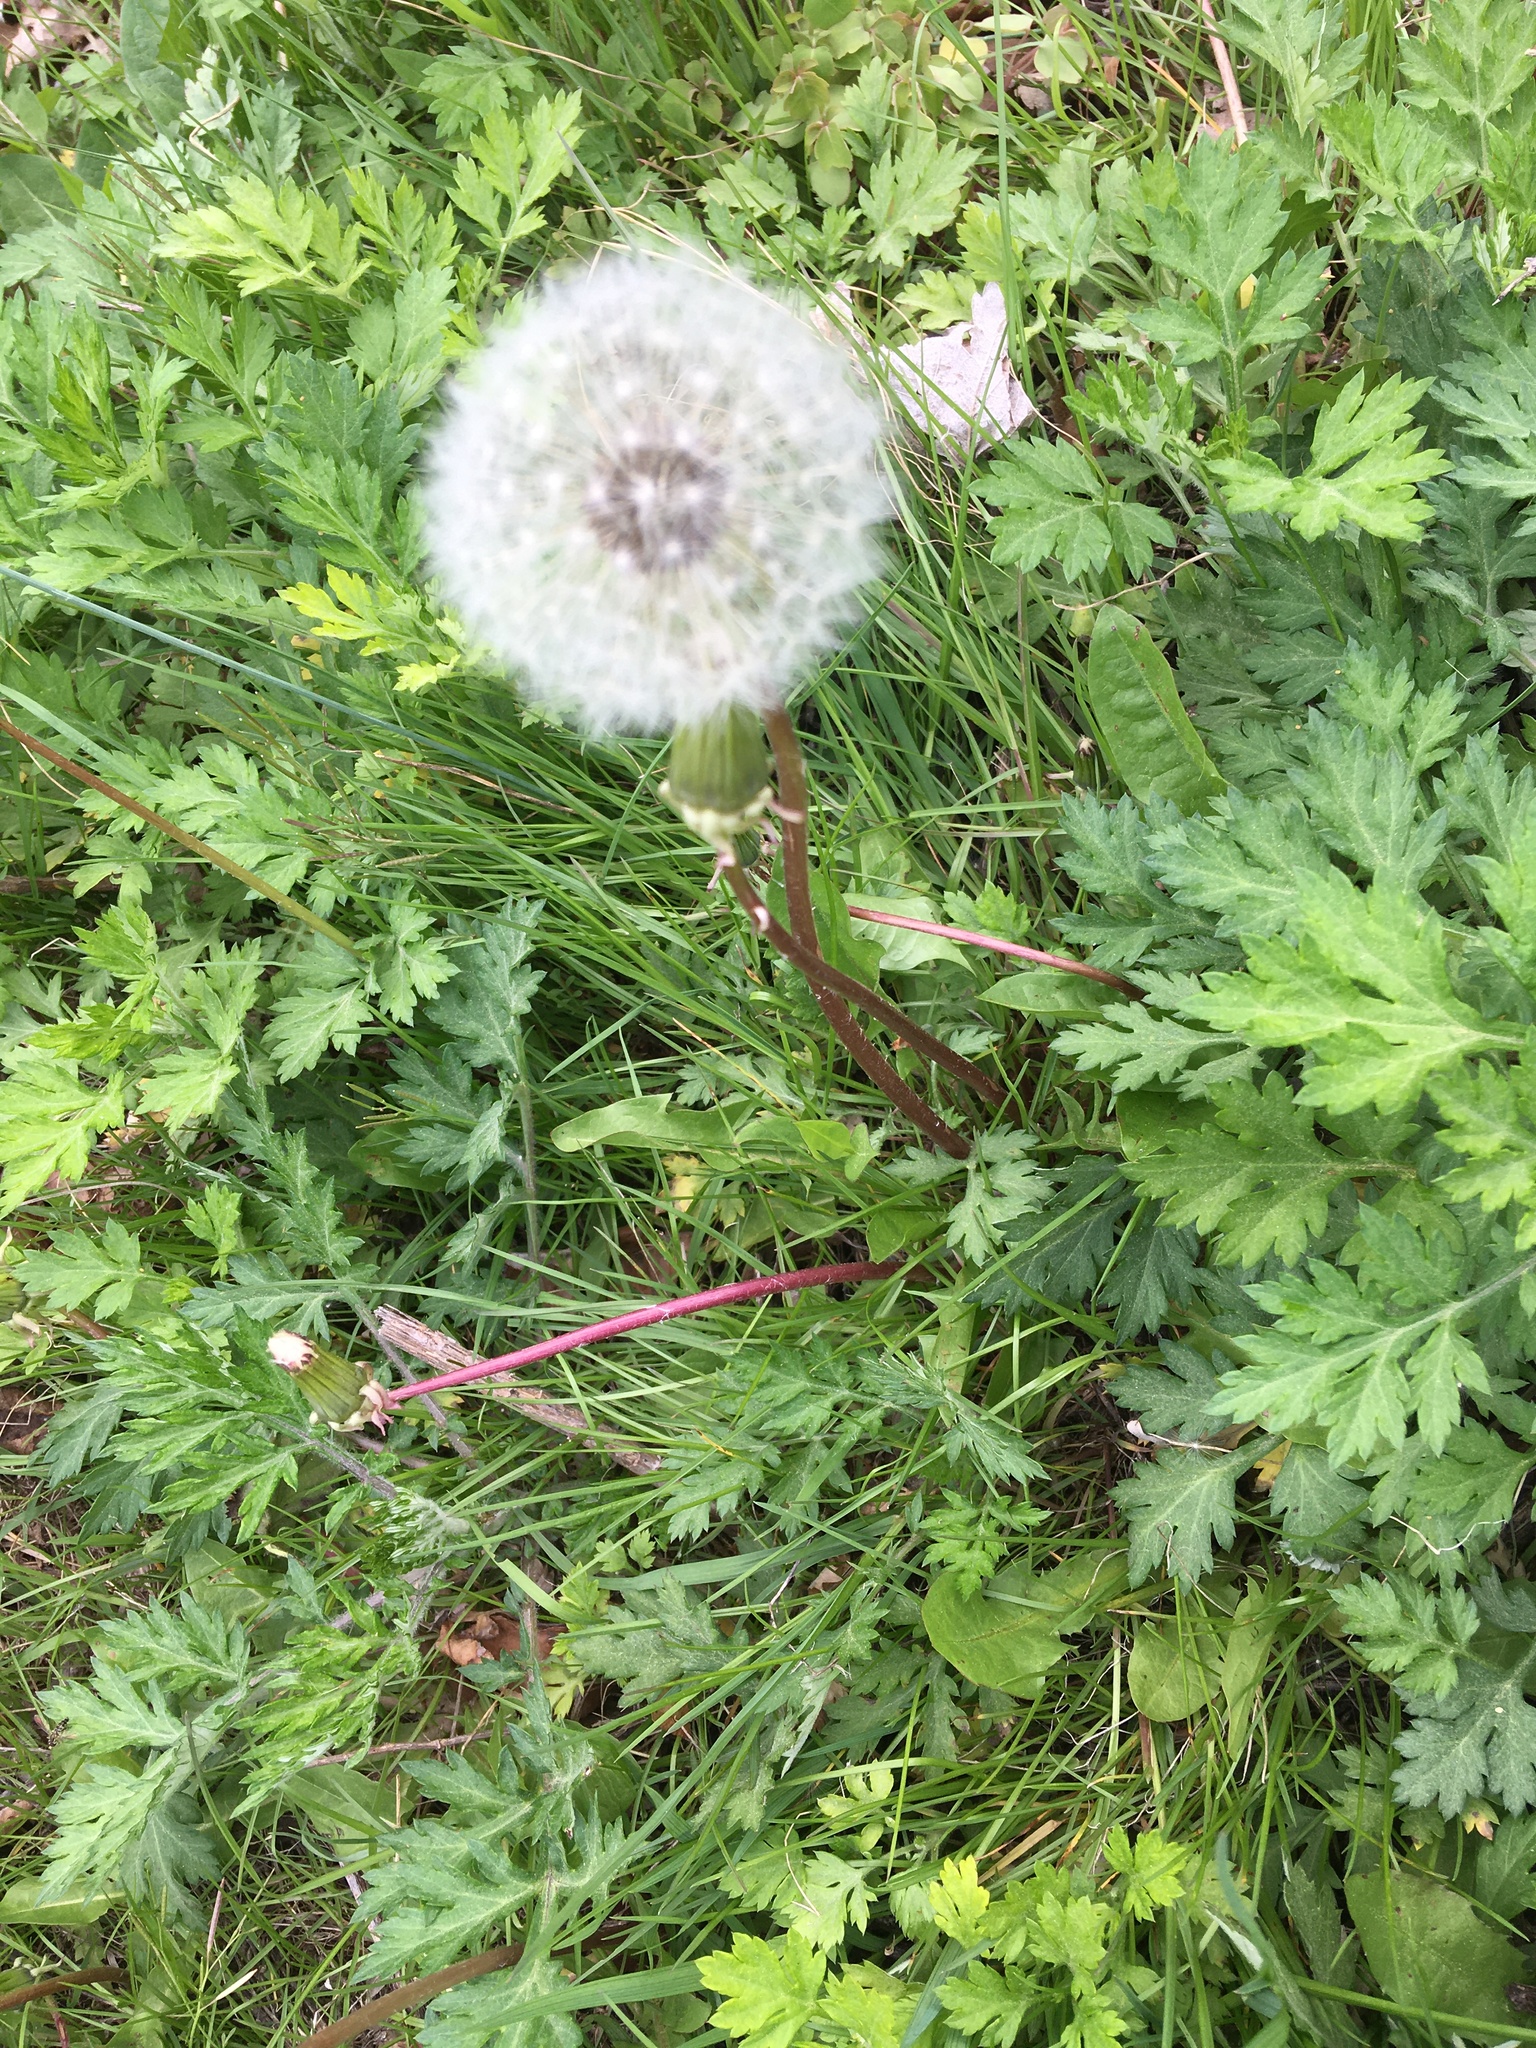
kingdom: Plantae
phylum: Tracheophyta
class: Magnoliopsida
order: Asterales
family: Asteraceae
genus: Taraxacum
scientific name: Taraxacum officinale
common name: Common dandelion
